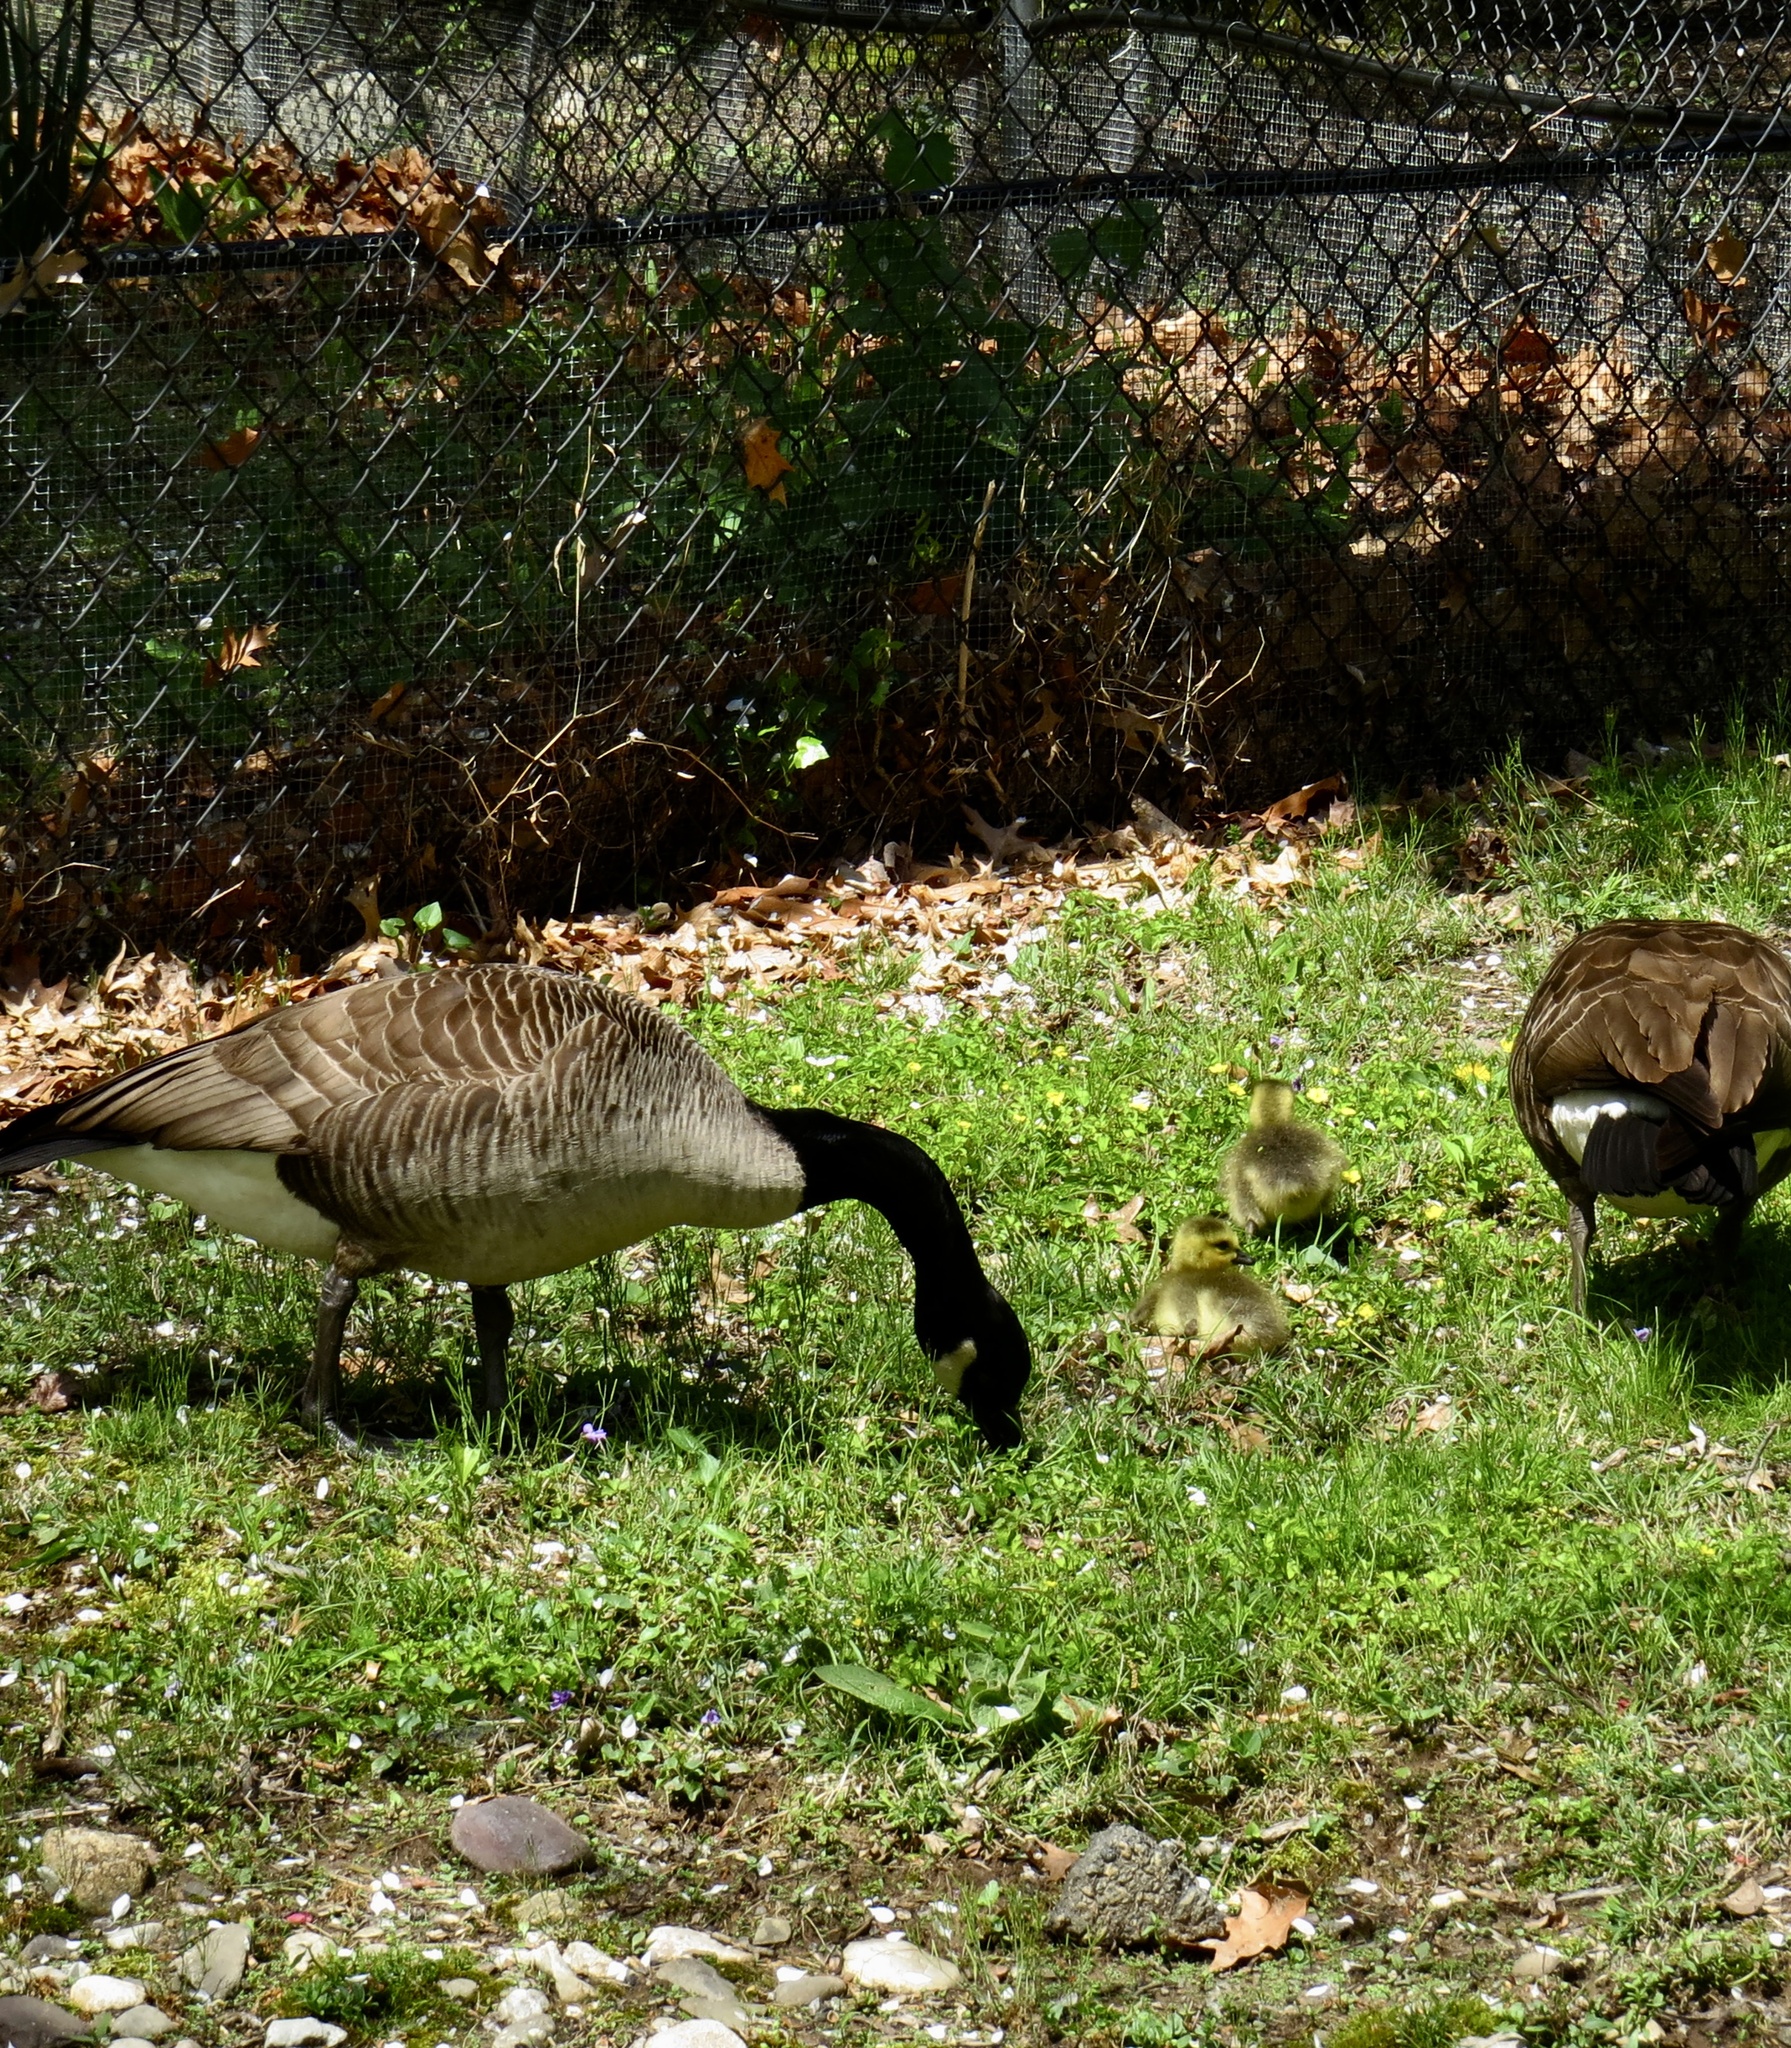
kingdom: Animalia
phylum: Chordata
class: Aves
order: Anseriformes
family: Anatidae
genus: Branta
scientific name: Branta canadensis
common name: Canada goose
